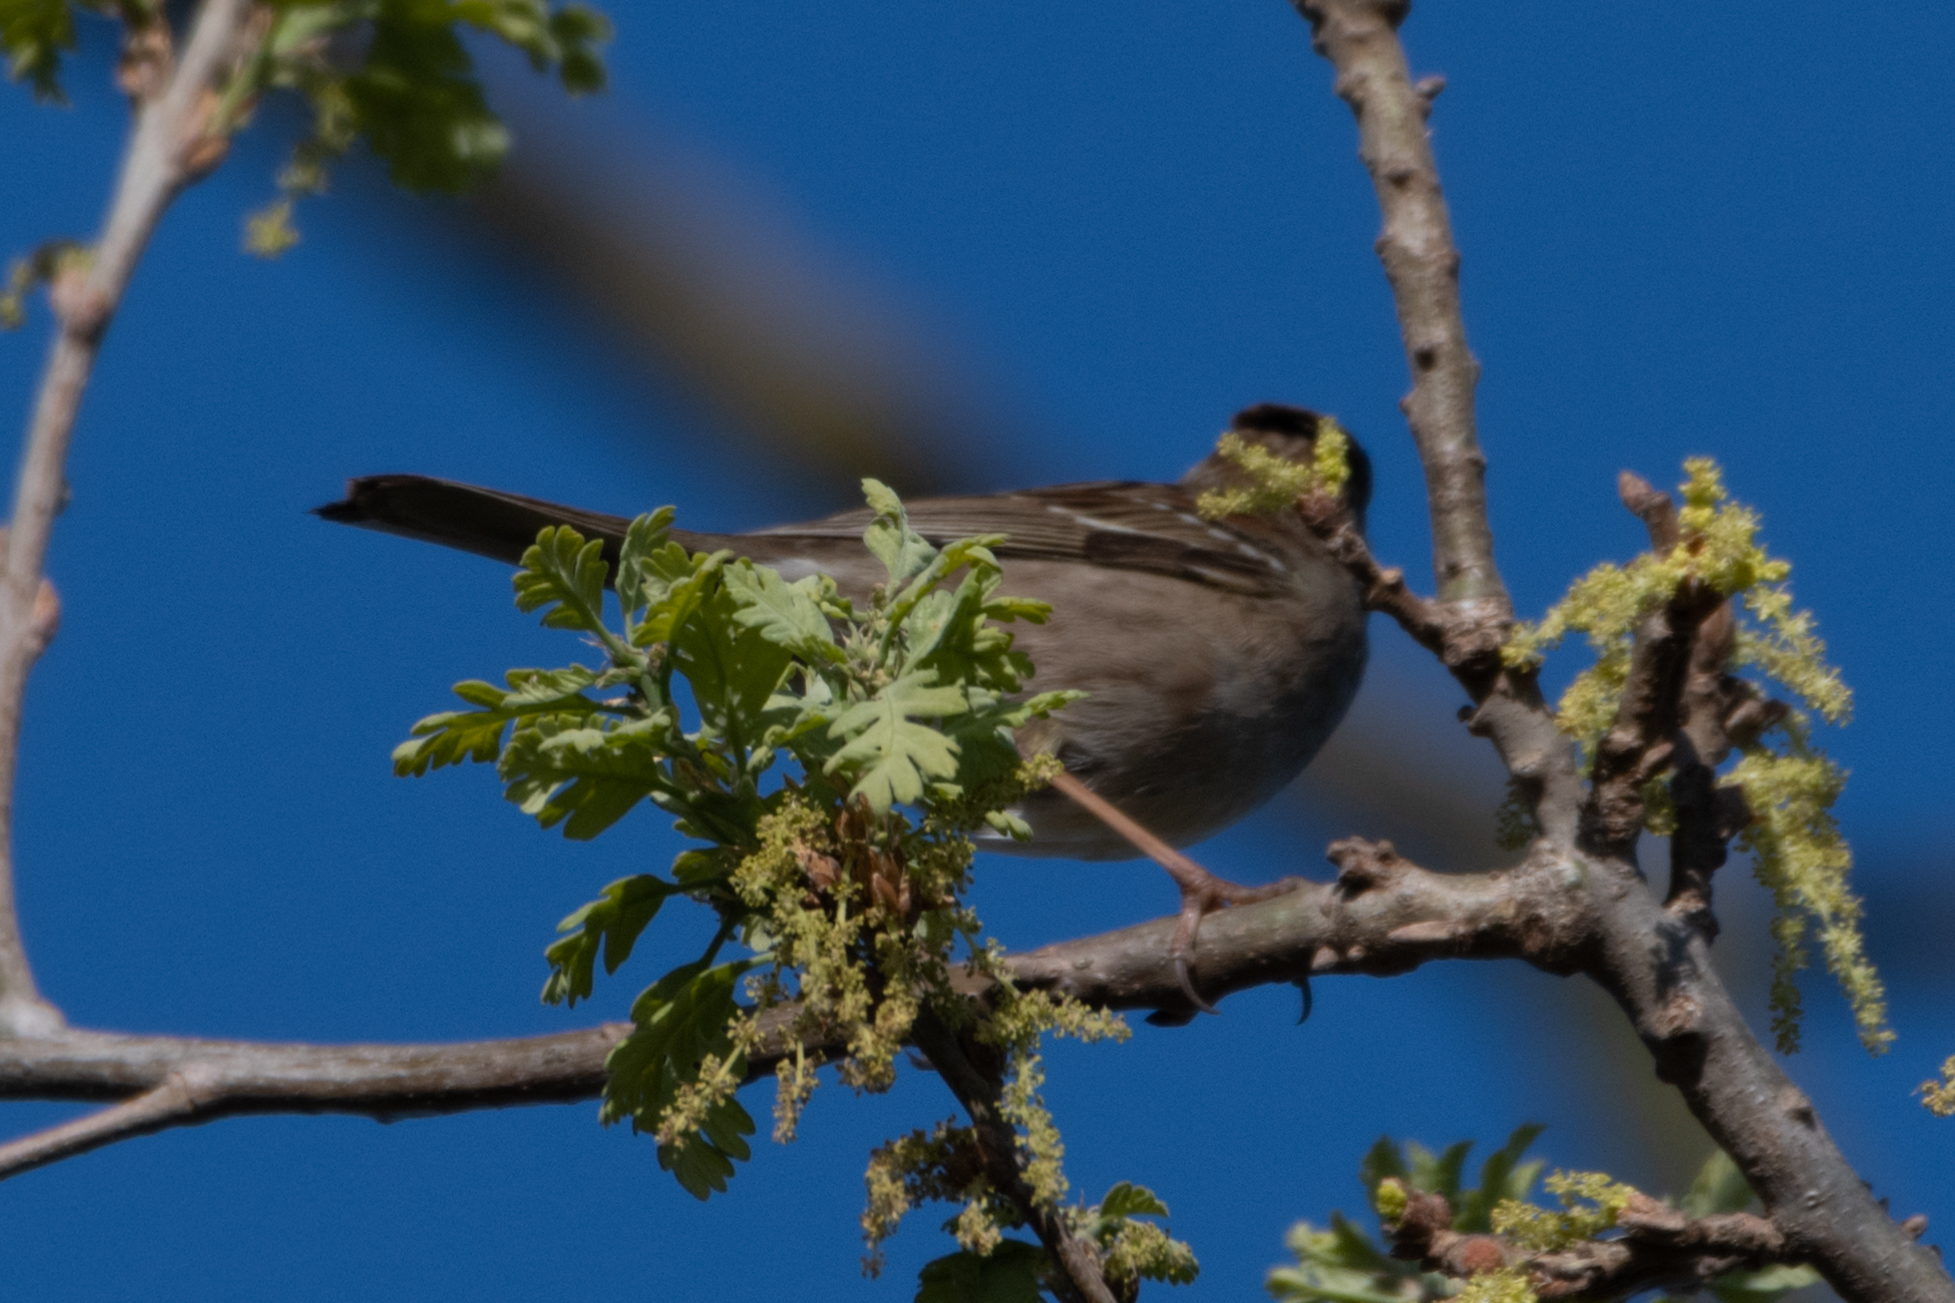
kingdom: Animalia
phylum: Chordata
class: Aves
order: Passeriformes
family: Passerellidae
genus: Zonotrichia
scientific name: Zonotrichia atricapilla
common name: Golden-crowned sparrow
